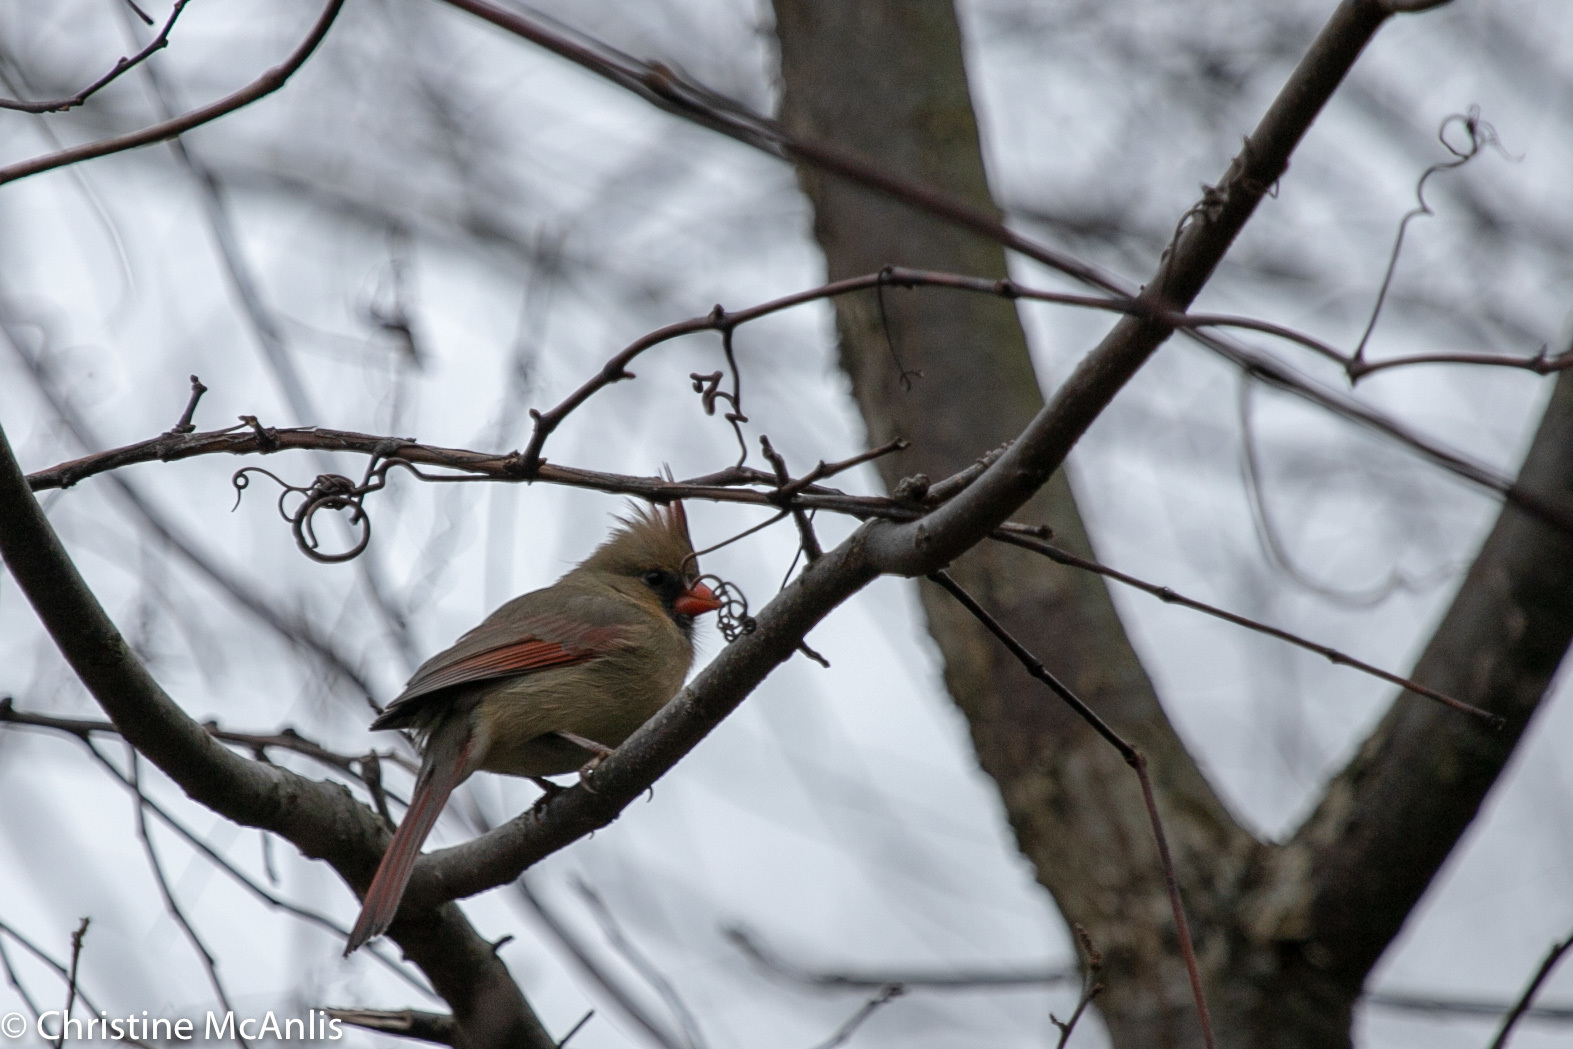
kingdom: Animalia
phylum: Chordata
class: Aves
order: Passeriformes
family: Cardinalidae
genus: Cardinalis
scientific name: Cardinalis cardinalis
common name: Northern cardinal
